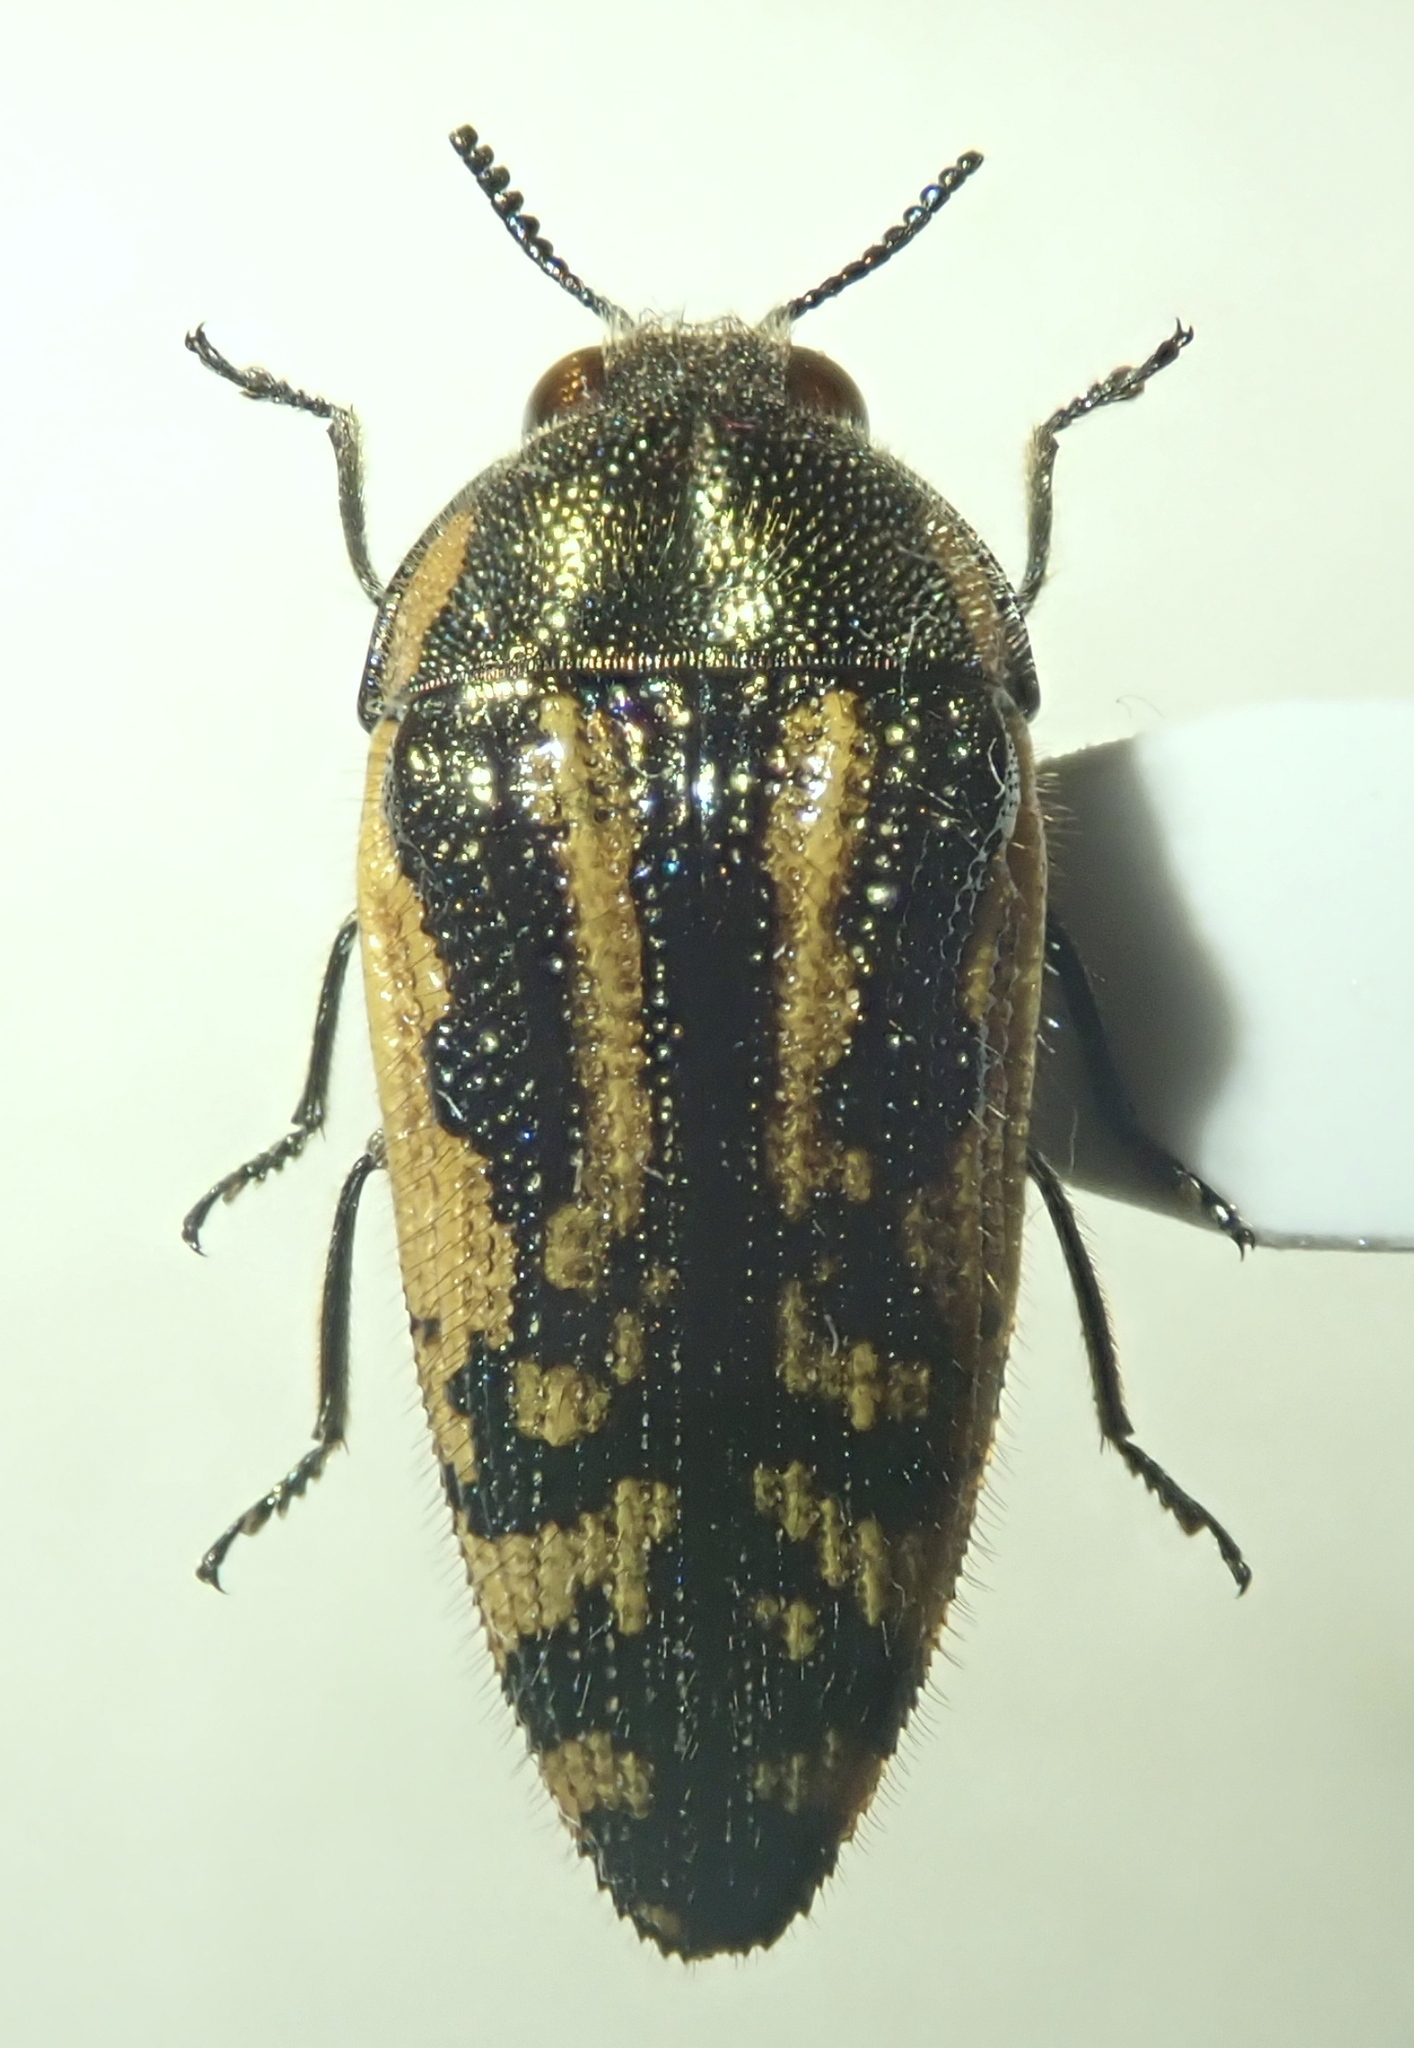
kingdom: Animalia
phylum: Arthropoda
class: Insecta
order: Coleoptera
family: Buprestidae
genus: Acmaeodera
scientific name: Acmaeodera amplicollis
